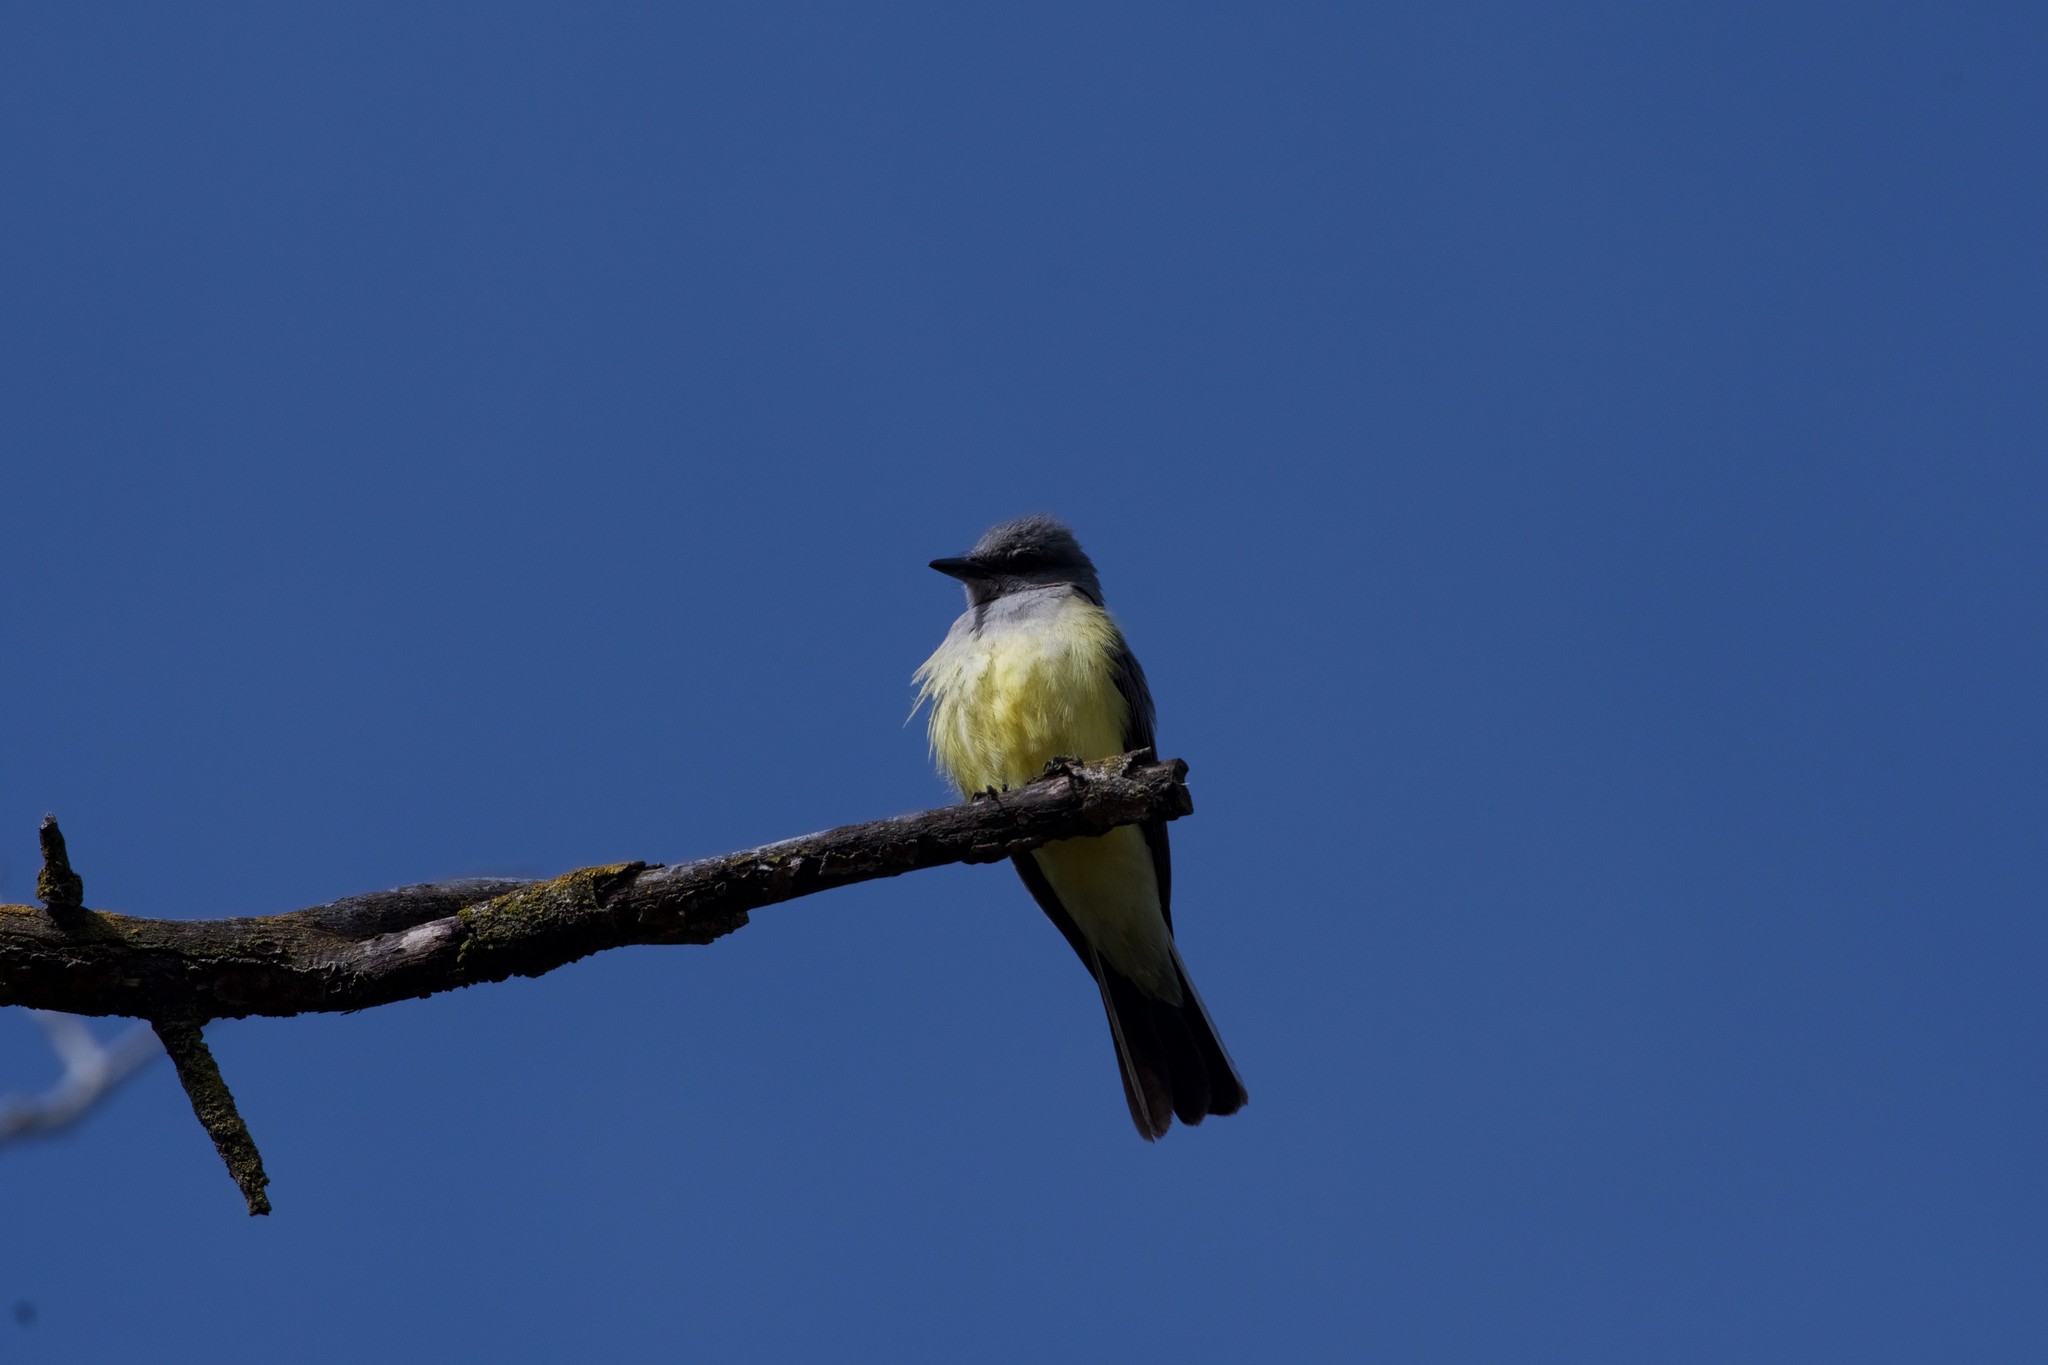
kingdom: Animalia
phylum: Chordata
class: Aves
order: Passeriformes
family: Tyrannidae
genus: Tyrannus
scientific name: Tyrannus verticalis
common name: Western kingbird
